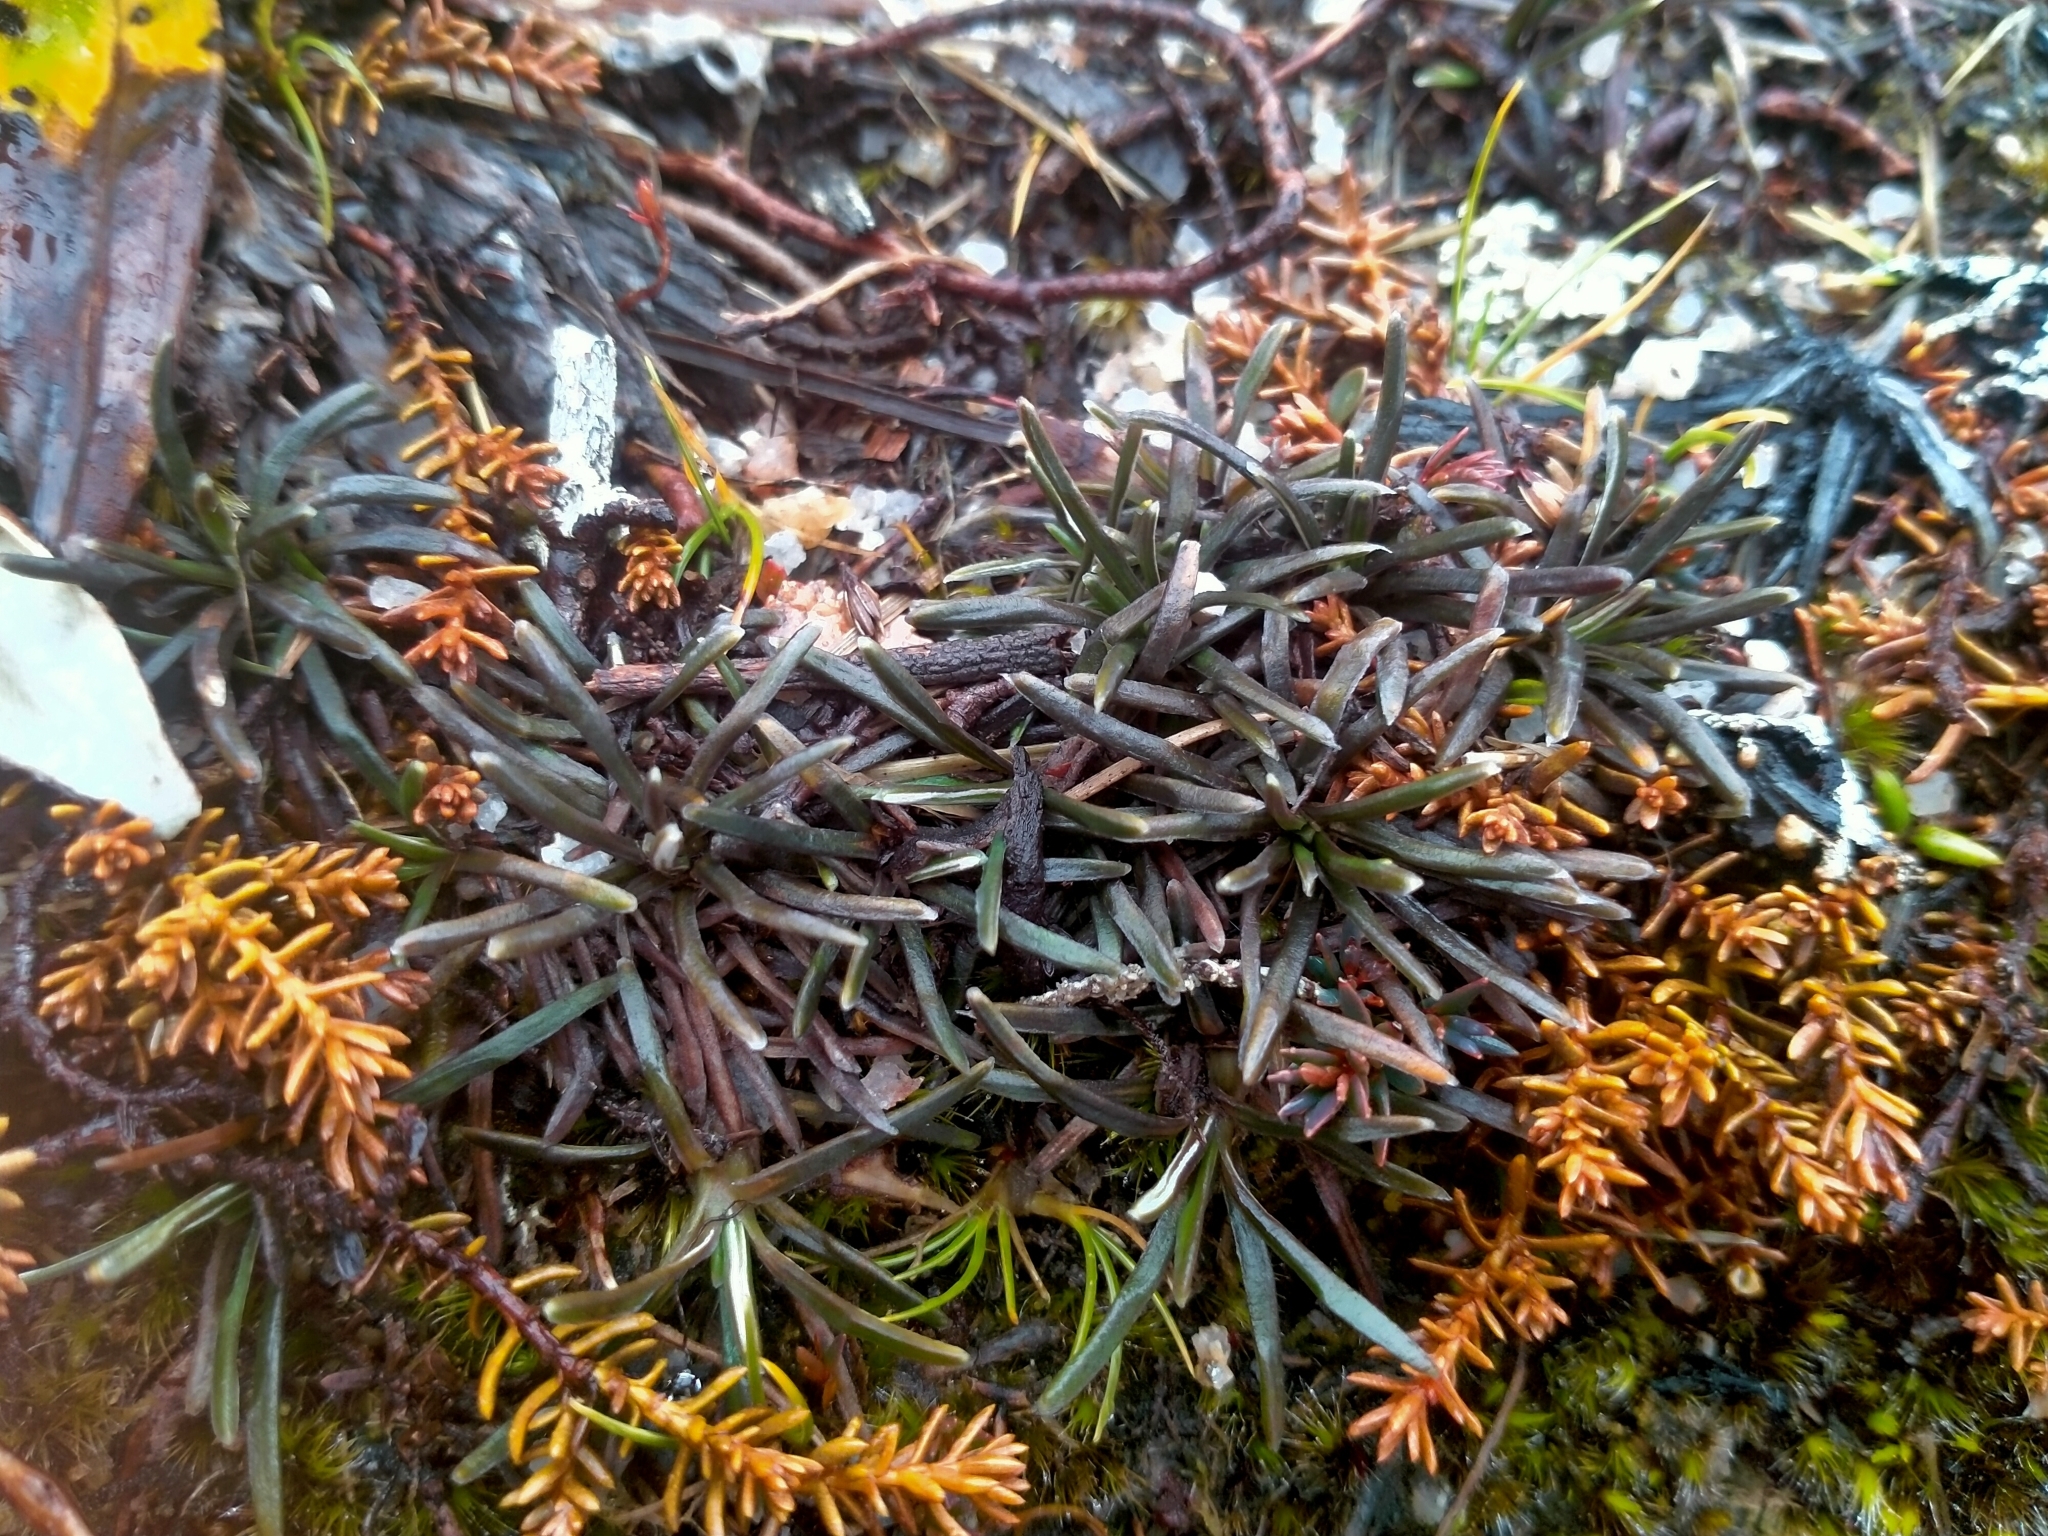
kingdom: Plantae
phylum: Tracheophyta
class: Magnoliopsida
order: Asterales
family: Asteraceae
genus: Celmisia
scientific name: Celmisia similis
